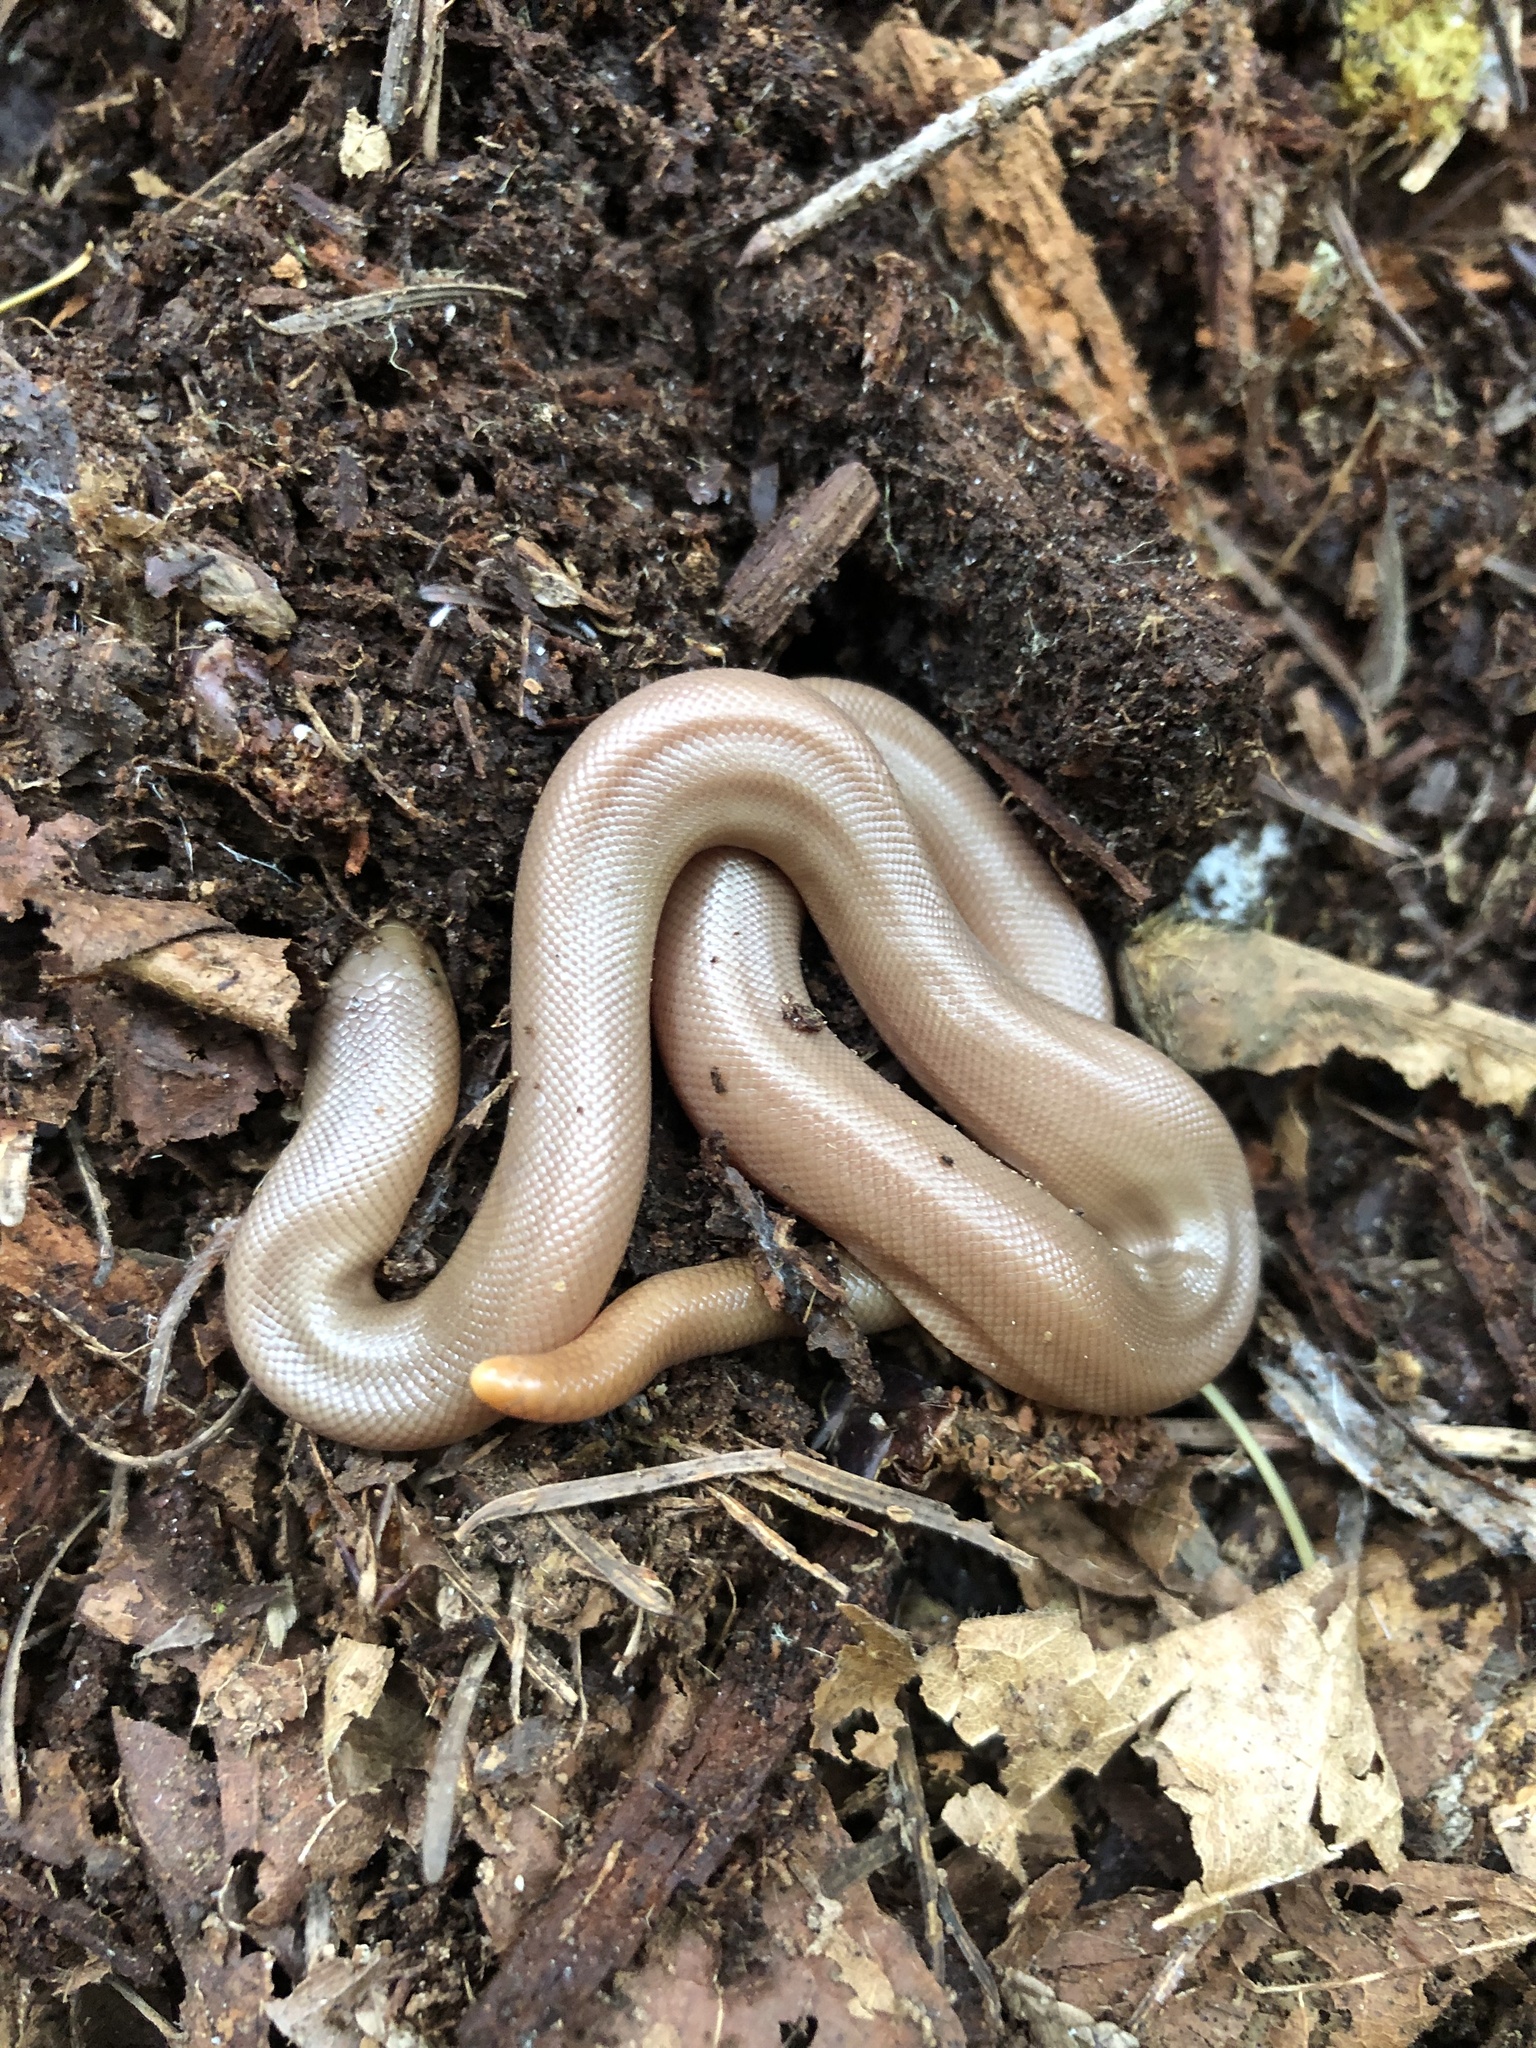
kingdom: Animalia
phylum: Chordata
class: Squamata
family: Boidae
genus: Charina
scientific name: Charina bottae
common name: Northern rubber boa
